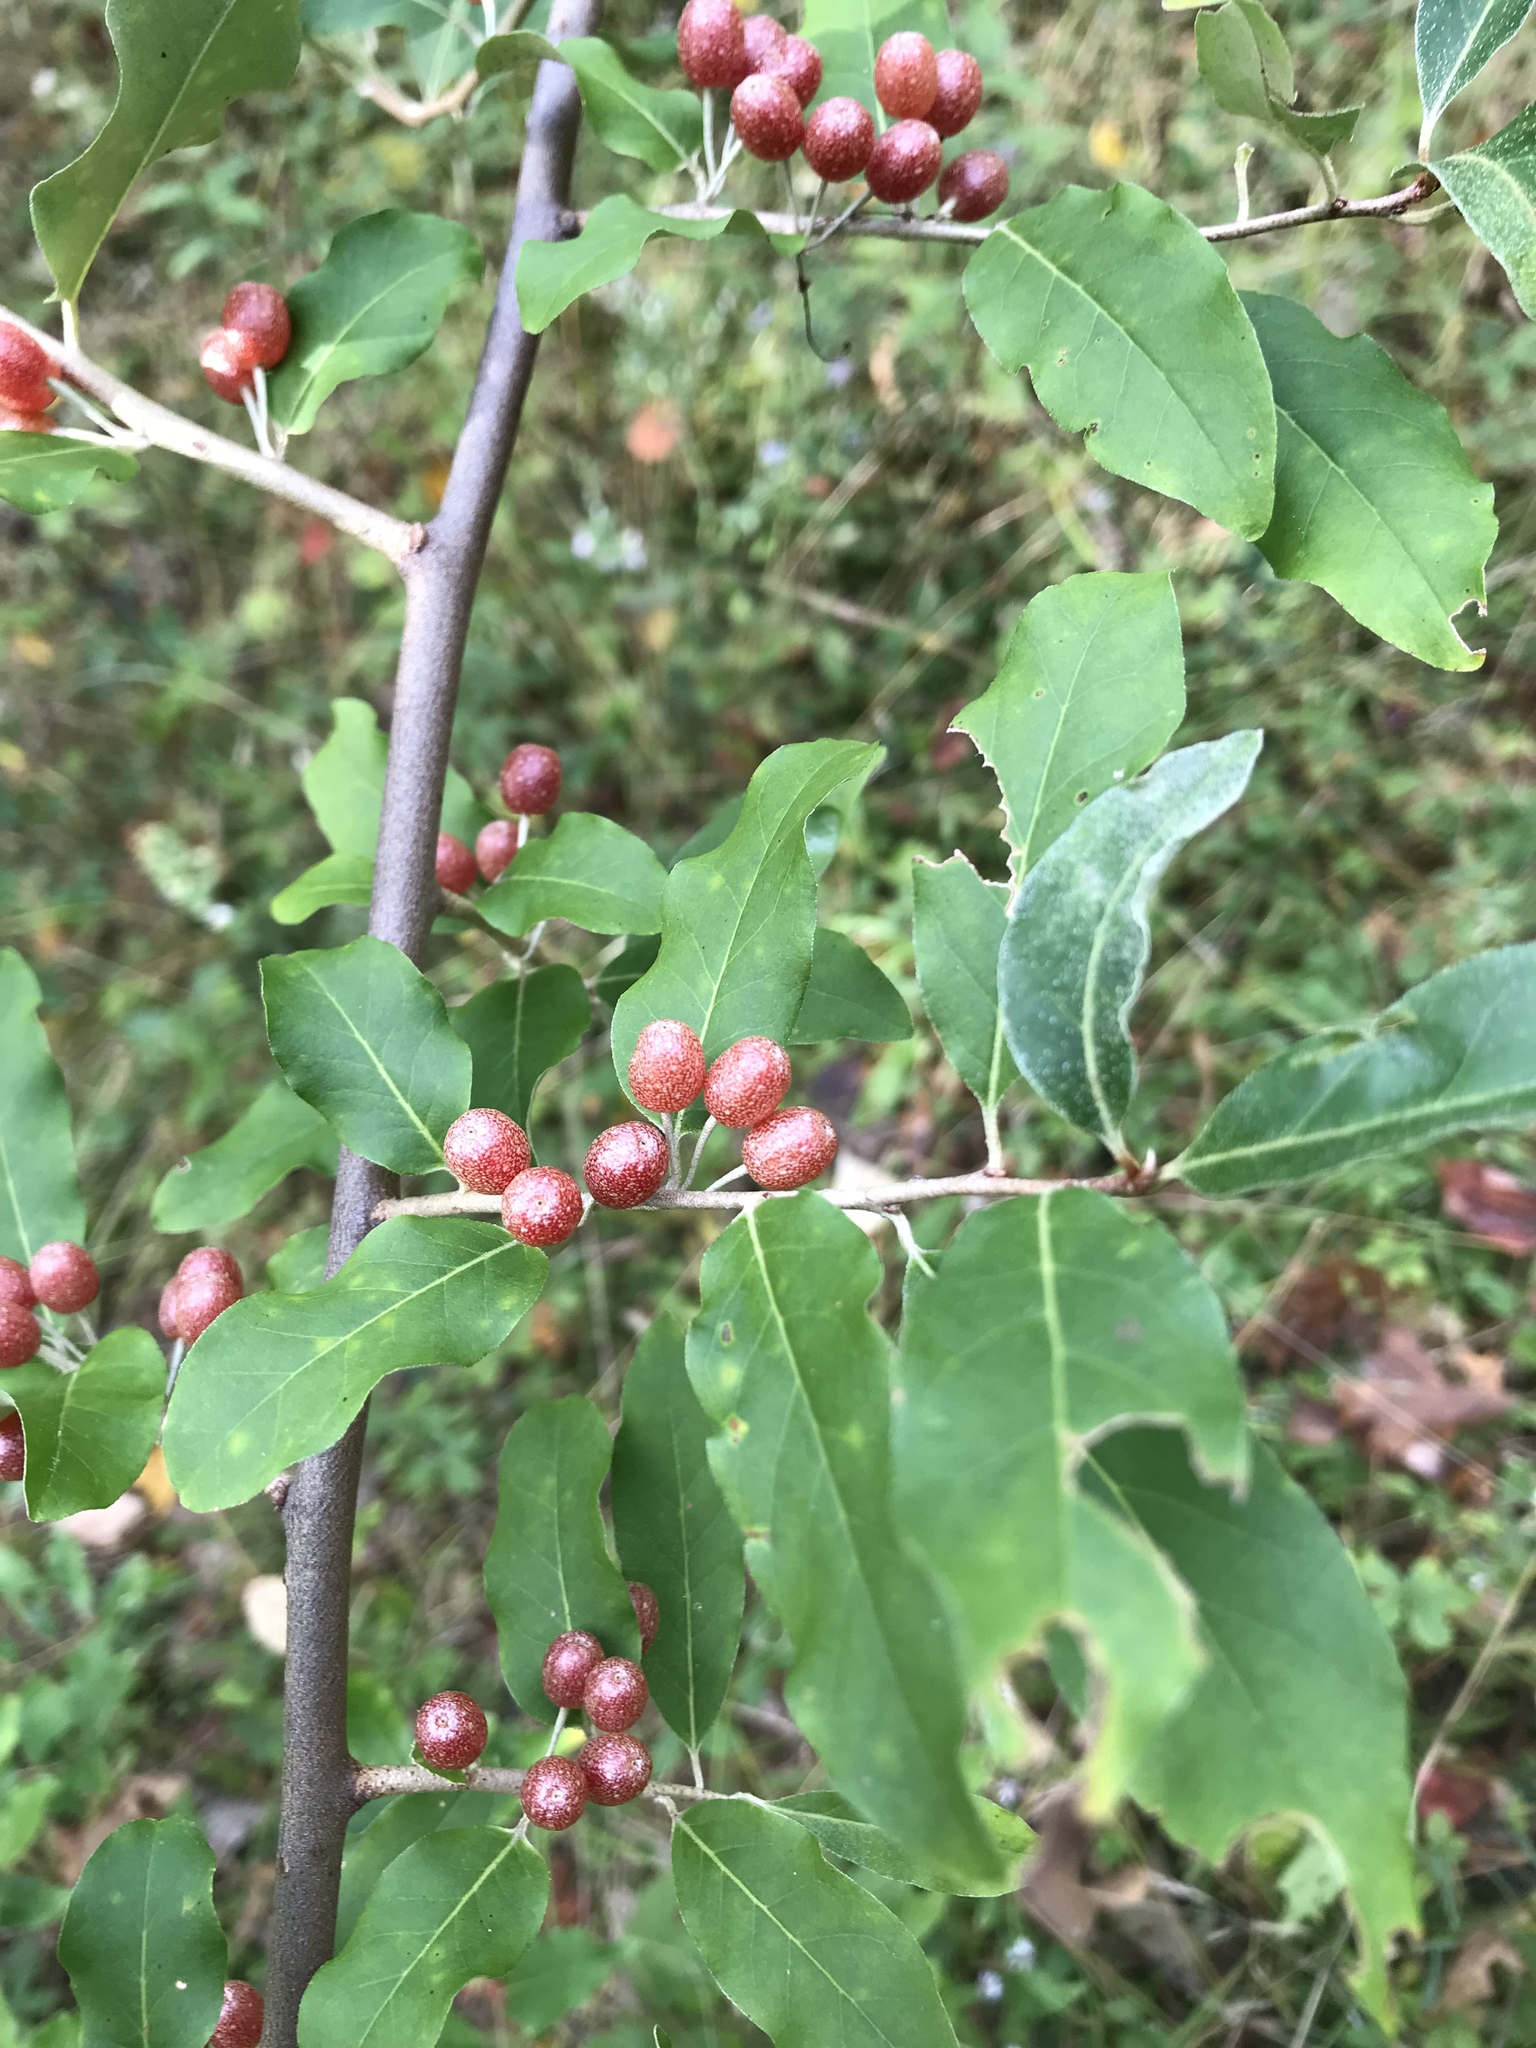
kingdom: Plantae
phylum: Tracheophyta
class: Magnoliopsida
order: Rosales
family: Elaeagnaceae
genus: Elaeagnus
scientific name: Elaeagnus umbellata
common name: Autumn olive
